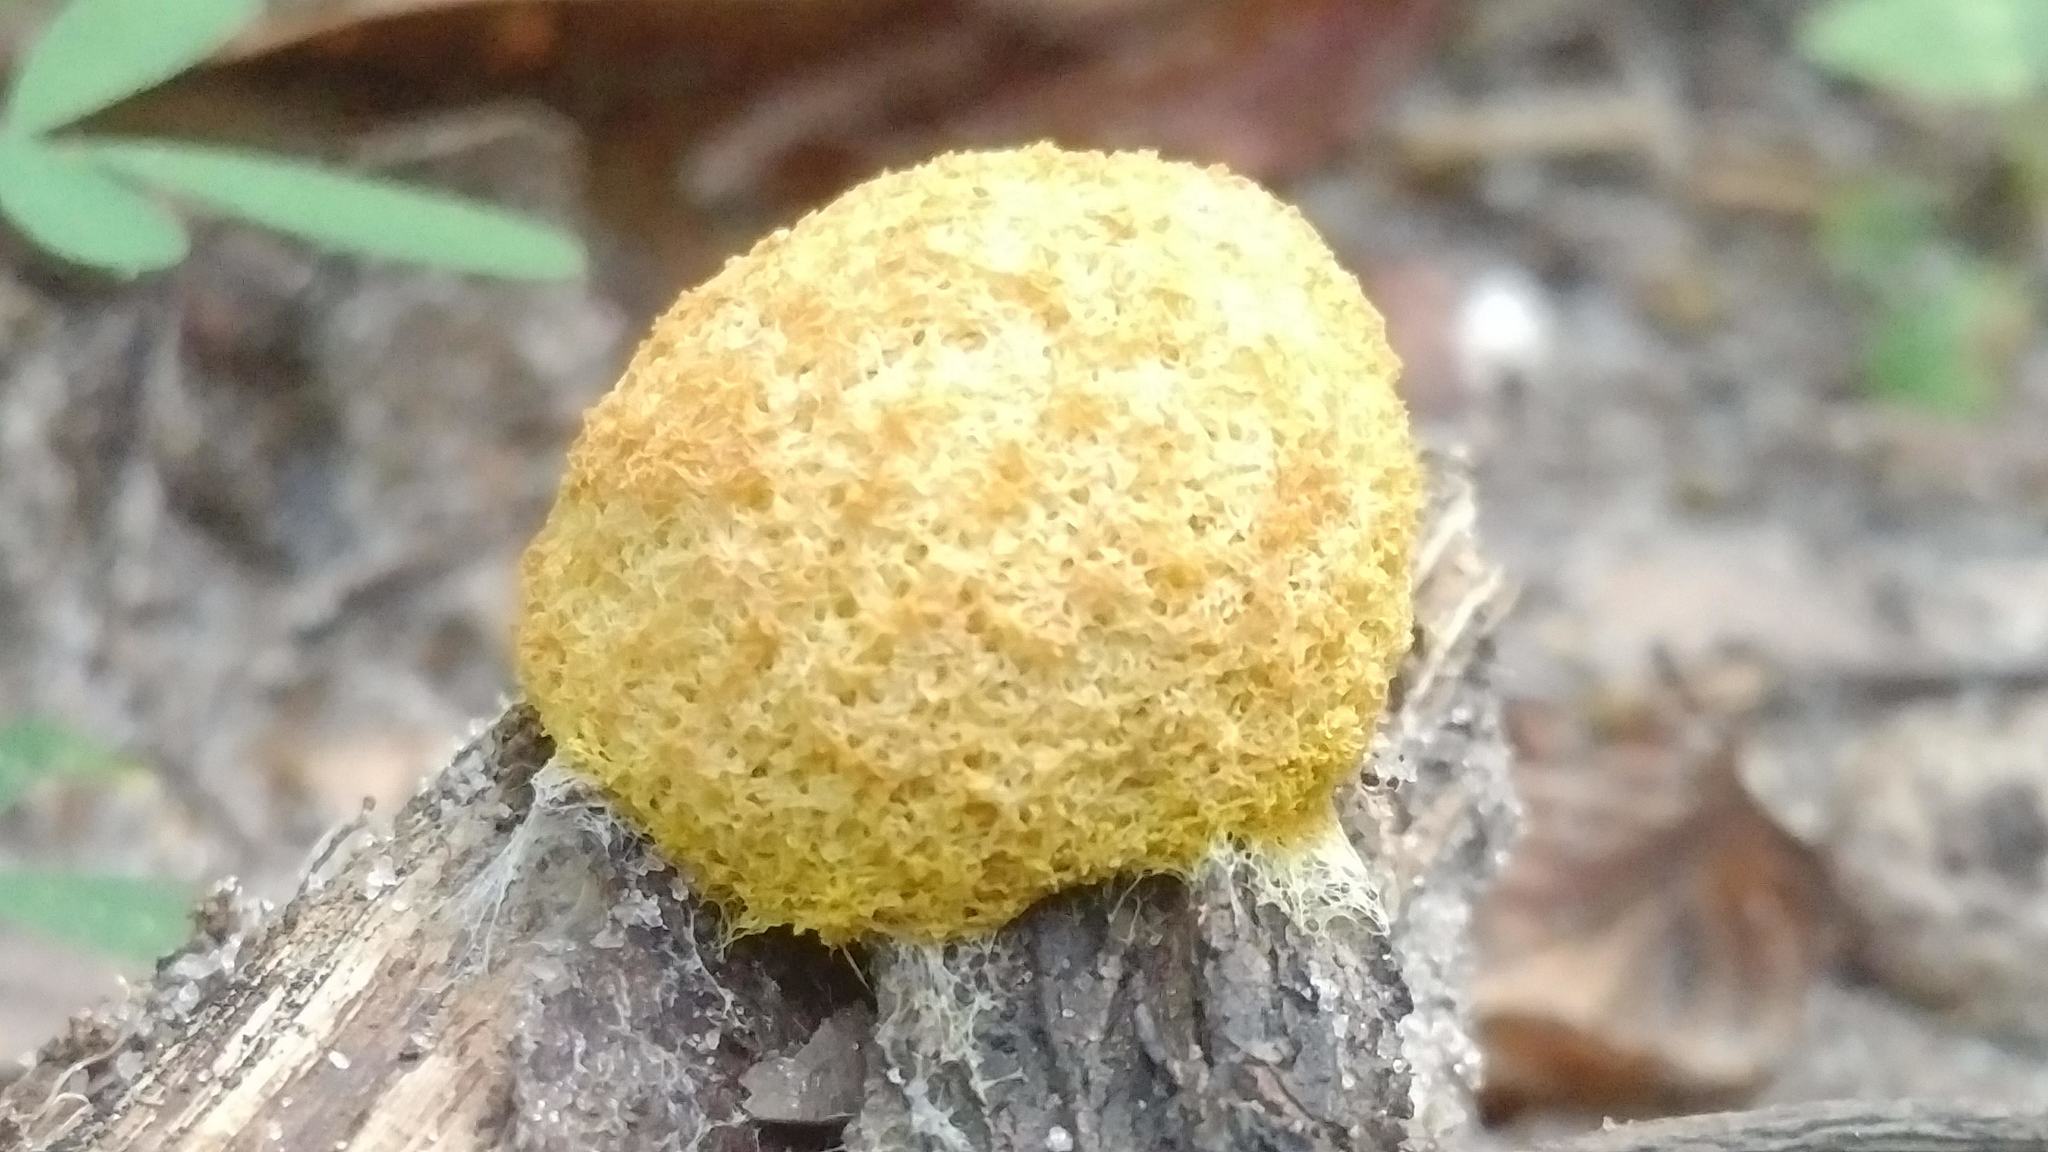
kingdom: Protozoa
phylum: Mycetozoa
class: Myxomycetes
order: Physarales
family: Physaraceae
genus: Fuligo
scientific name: Fuligo septica
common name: Dog vomit slime mold
